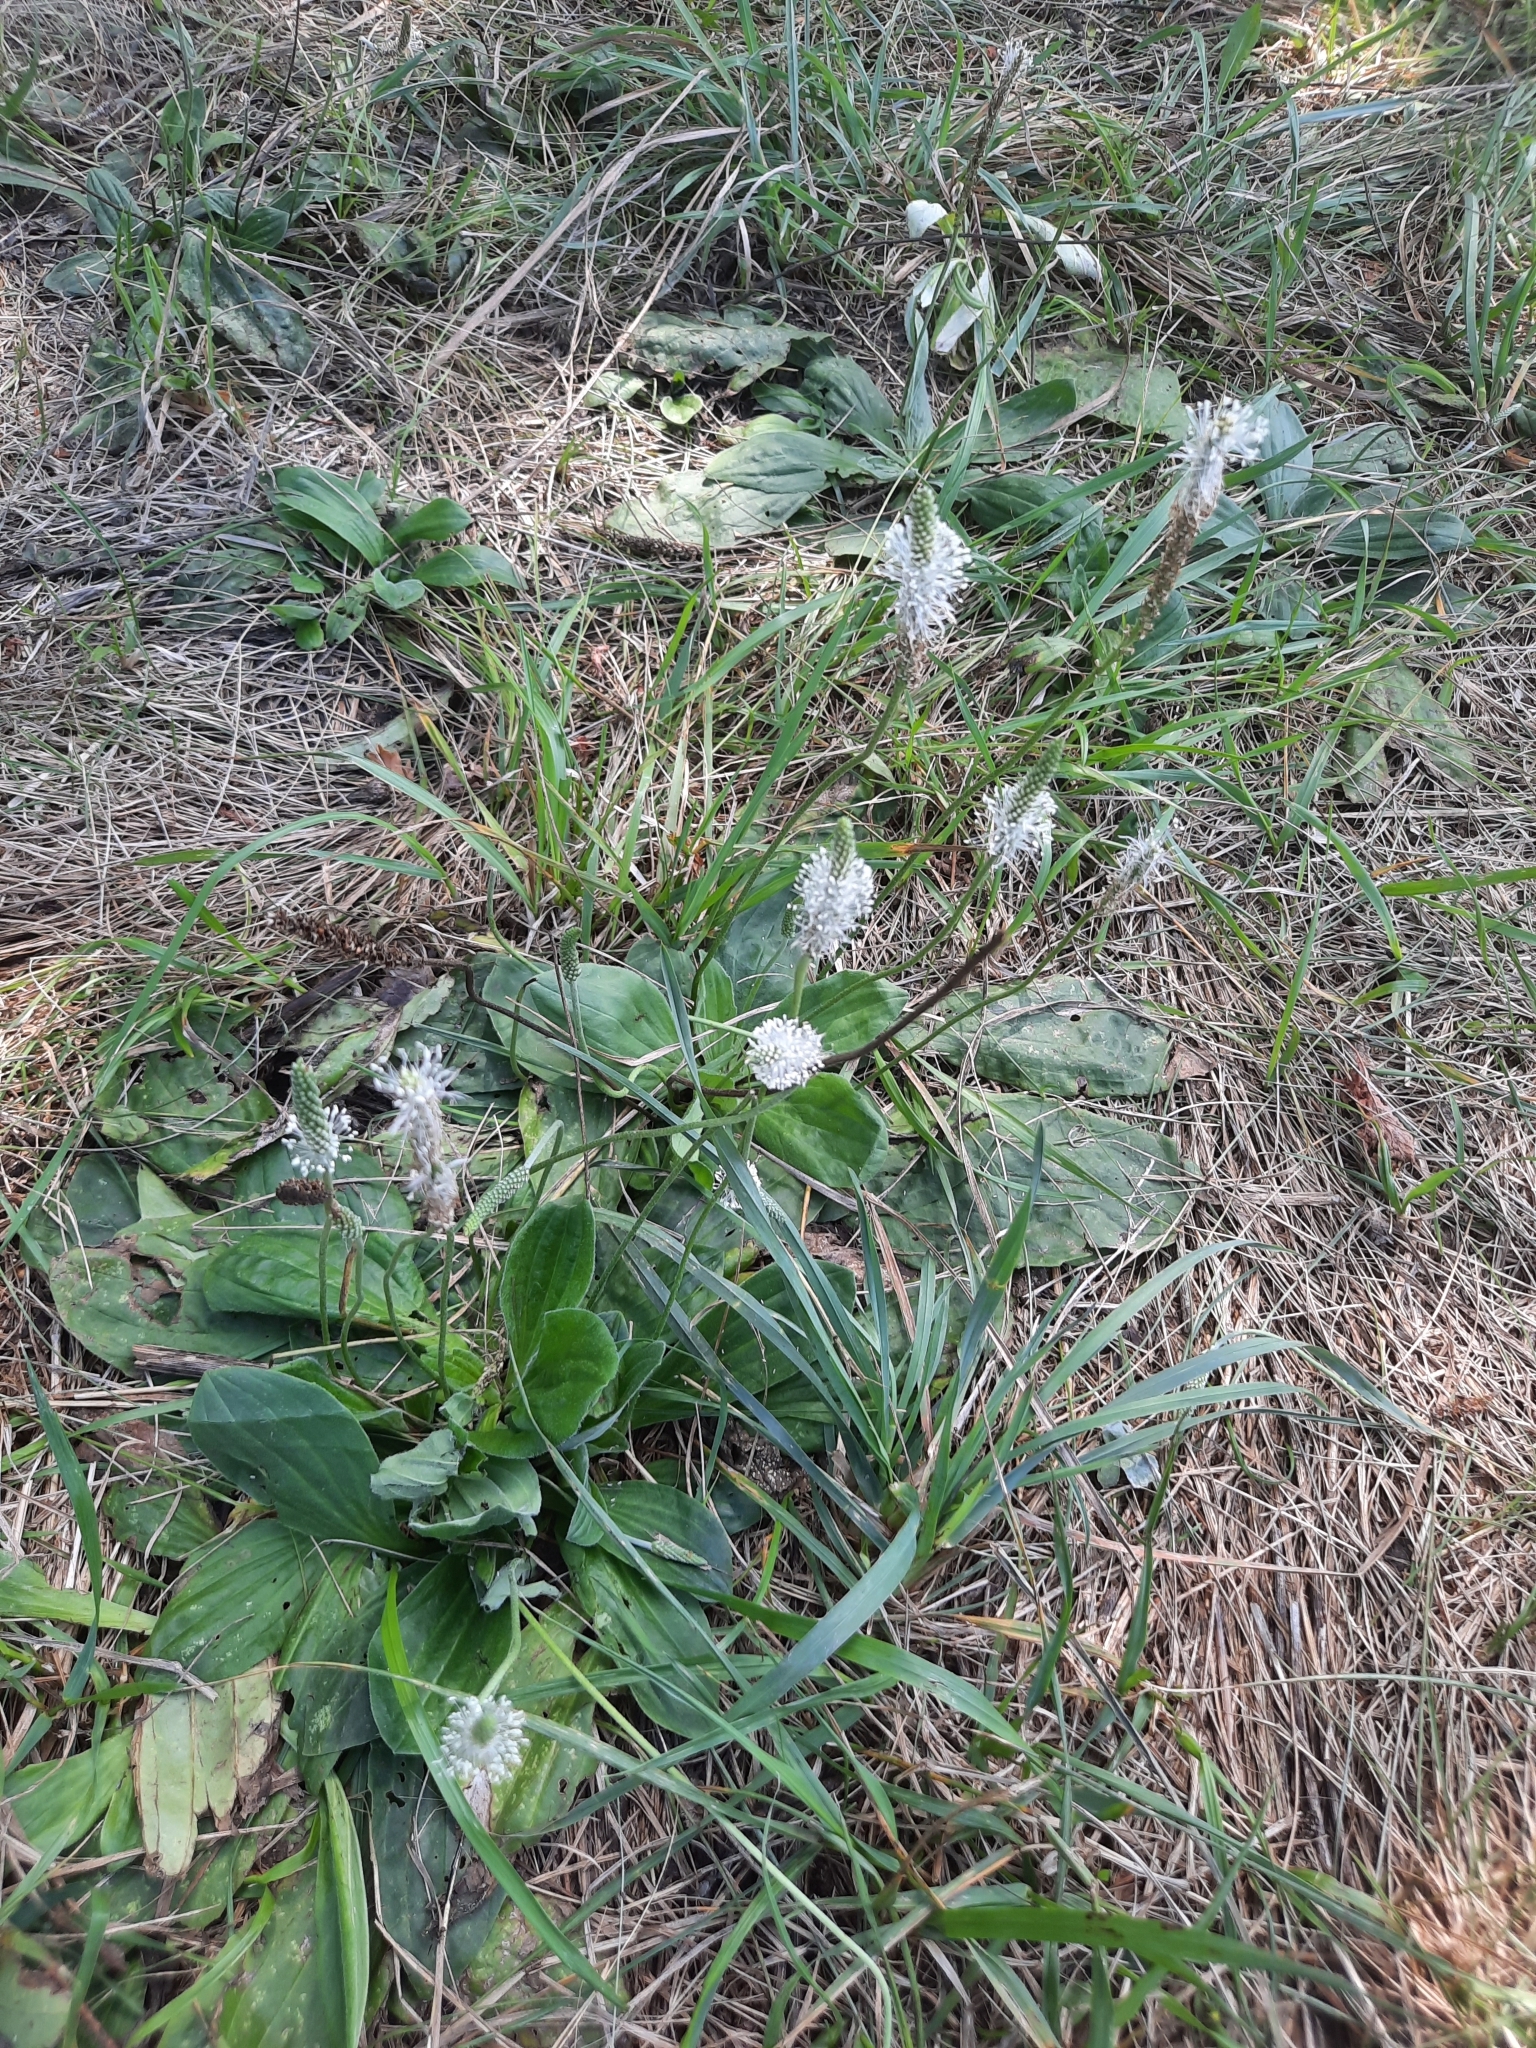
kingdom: Plantae
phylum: Tracheophyta
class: Magnoliopsida
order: Lamiales
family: Plantaginaceae
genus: Plantago
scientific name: Plantago media
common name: Hoary plantain
